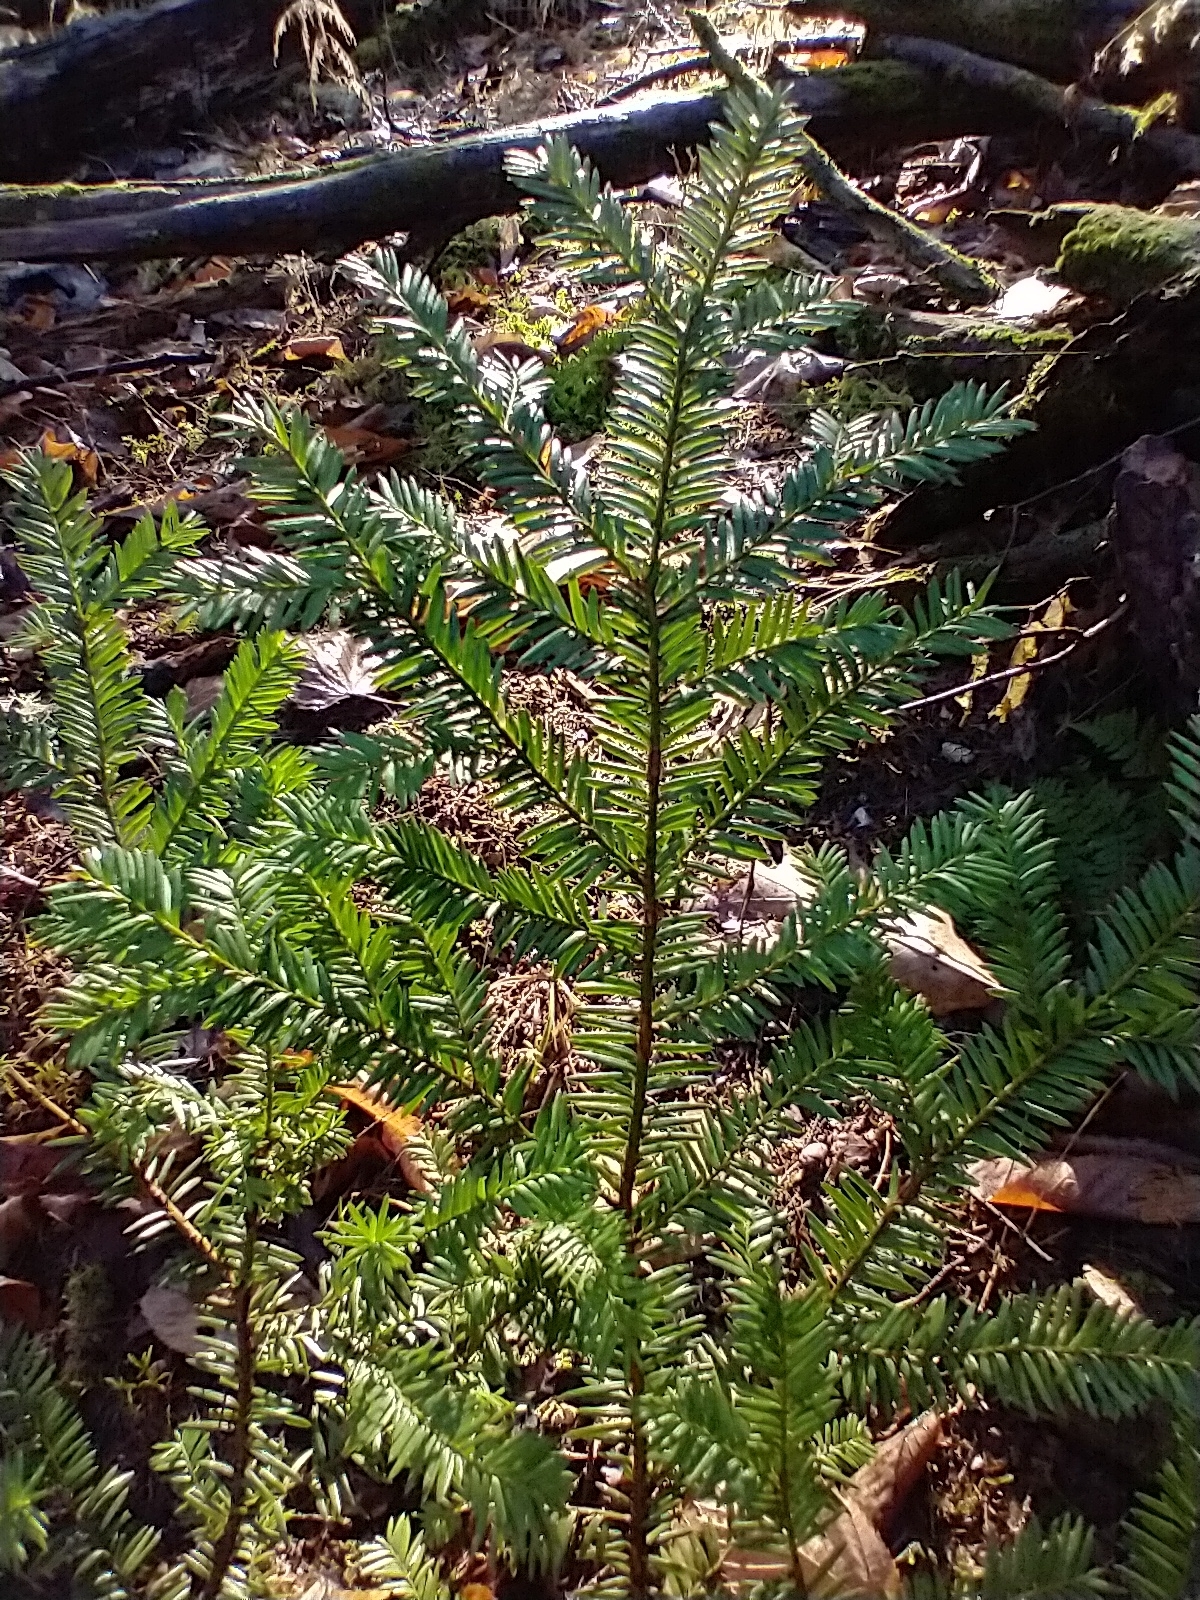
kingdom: Plantae
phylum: Tracheophyta
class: Pinopsida
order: Pinales
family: Taxaceae
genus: Taxus
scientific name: Taxus canadensis
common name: American yew
